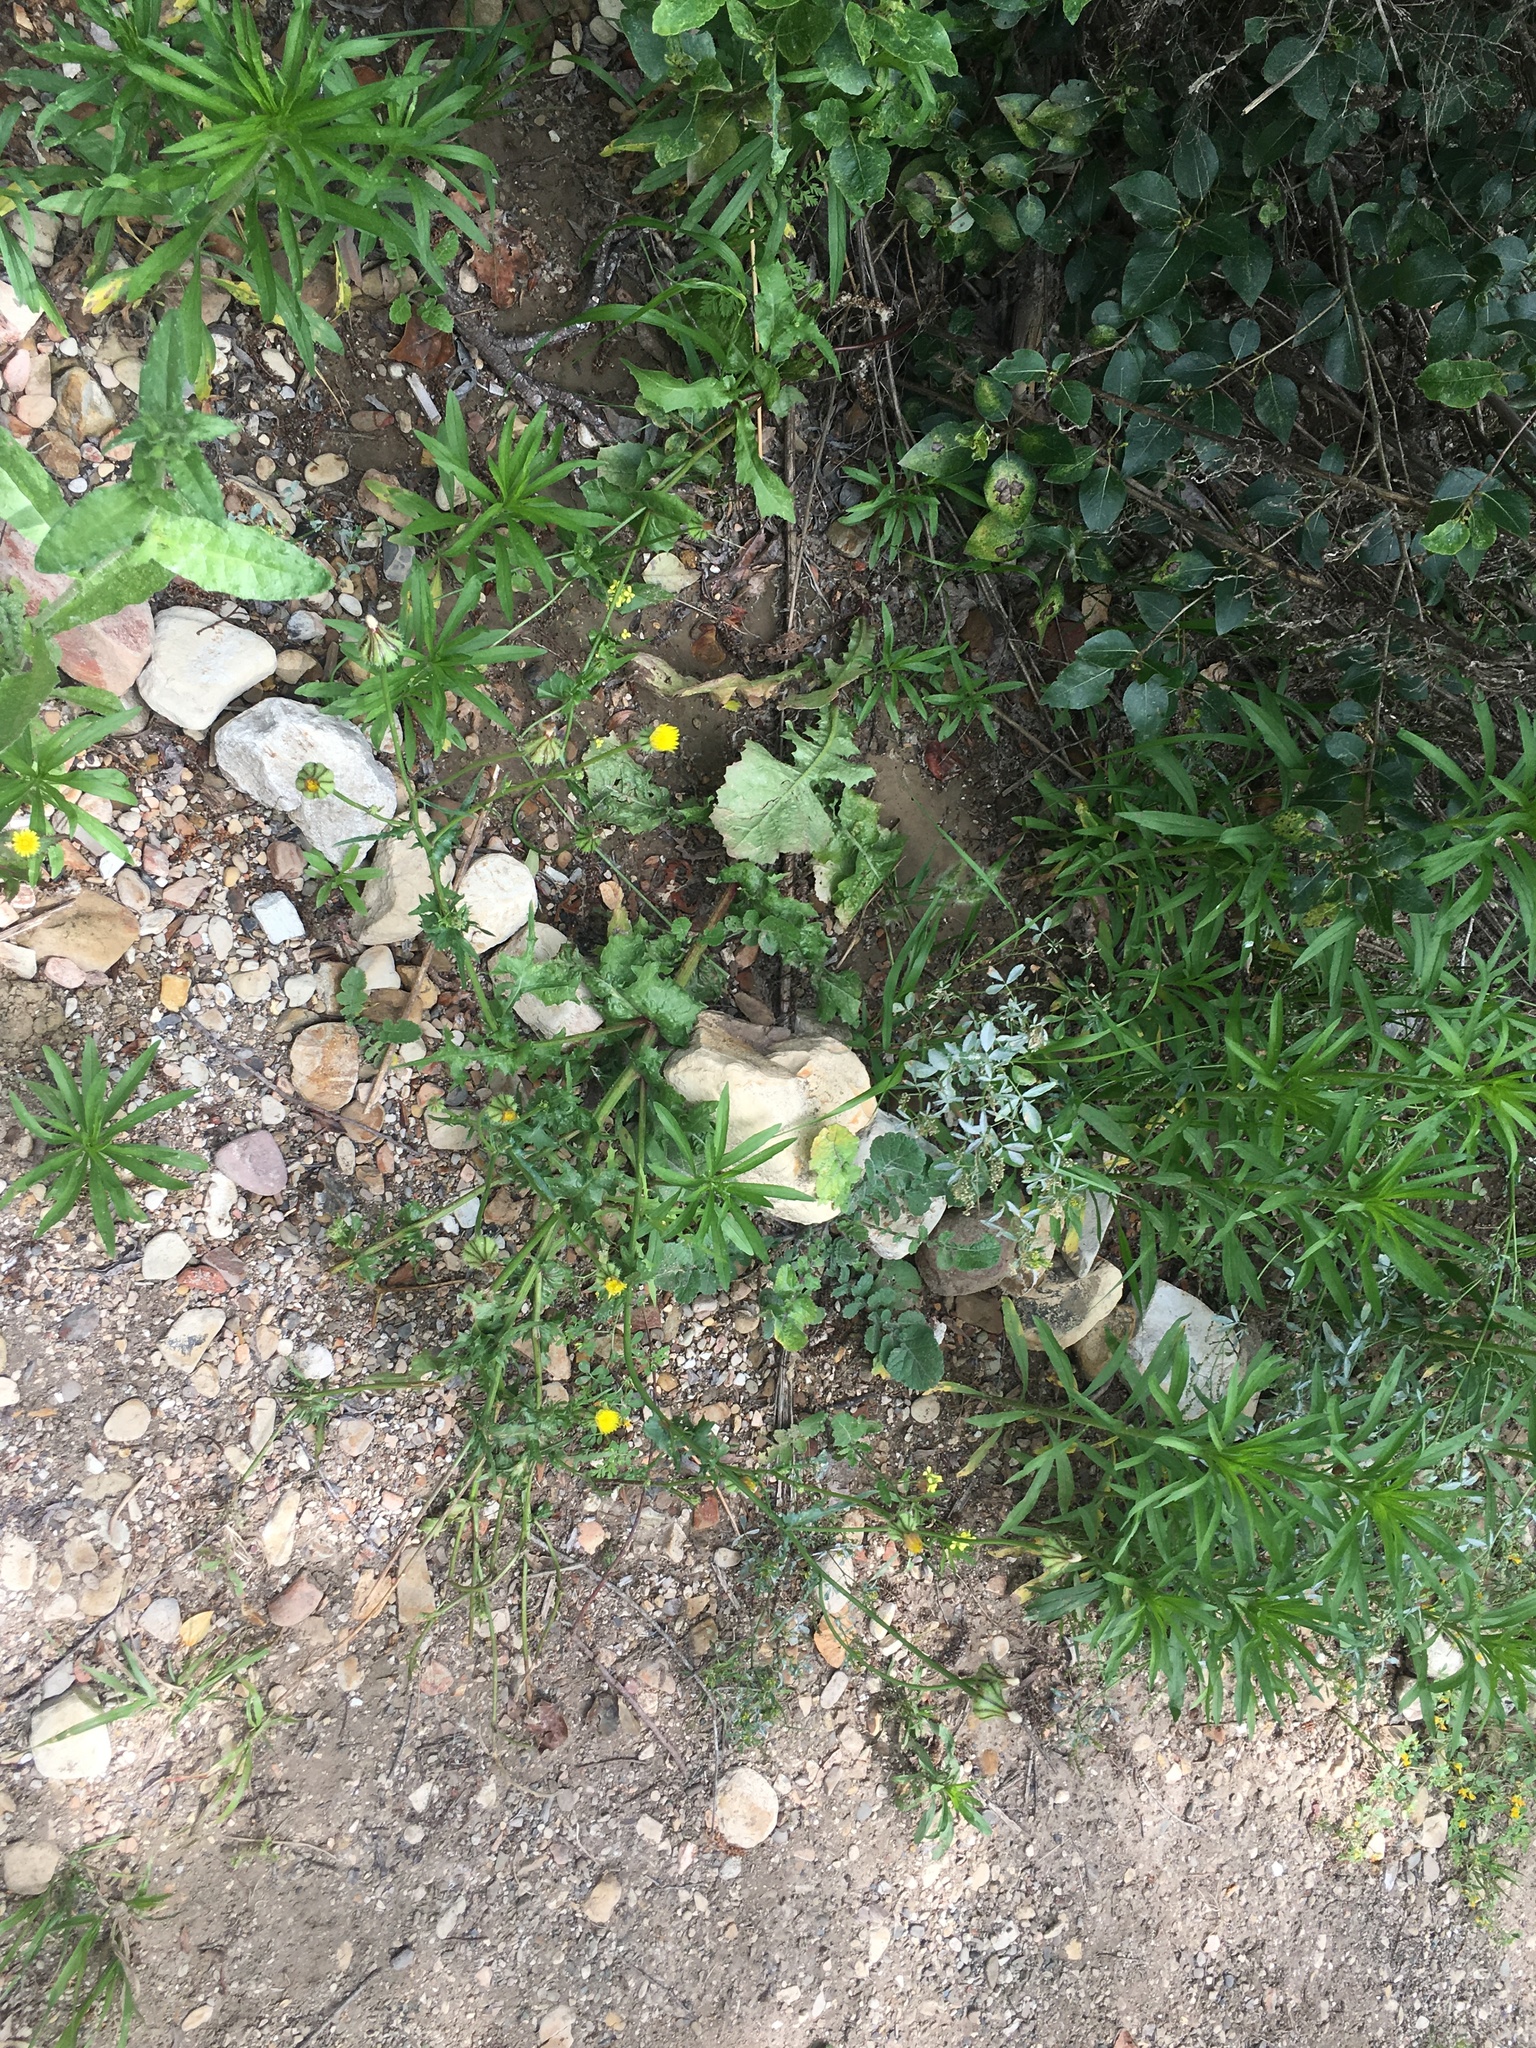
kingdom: Plantae
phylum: Tracheophyta
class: Magnoliopsida
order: Asterales
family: Asteraceae
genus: Urospermum
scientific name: Urospermum picroides
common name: False hawkbit
